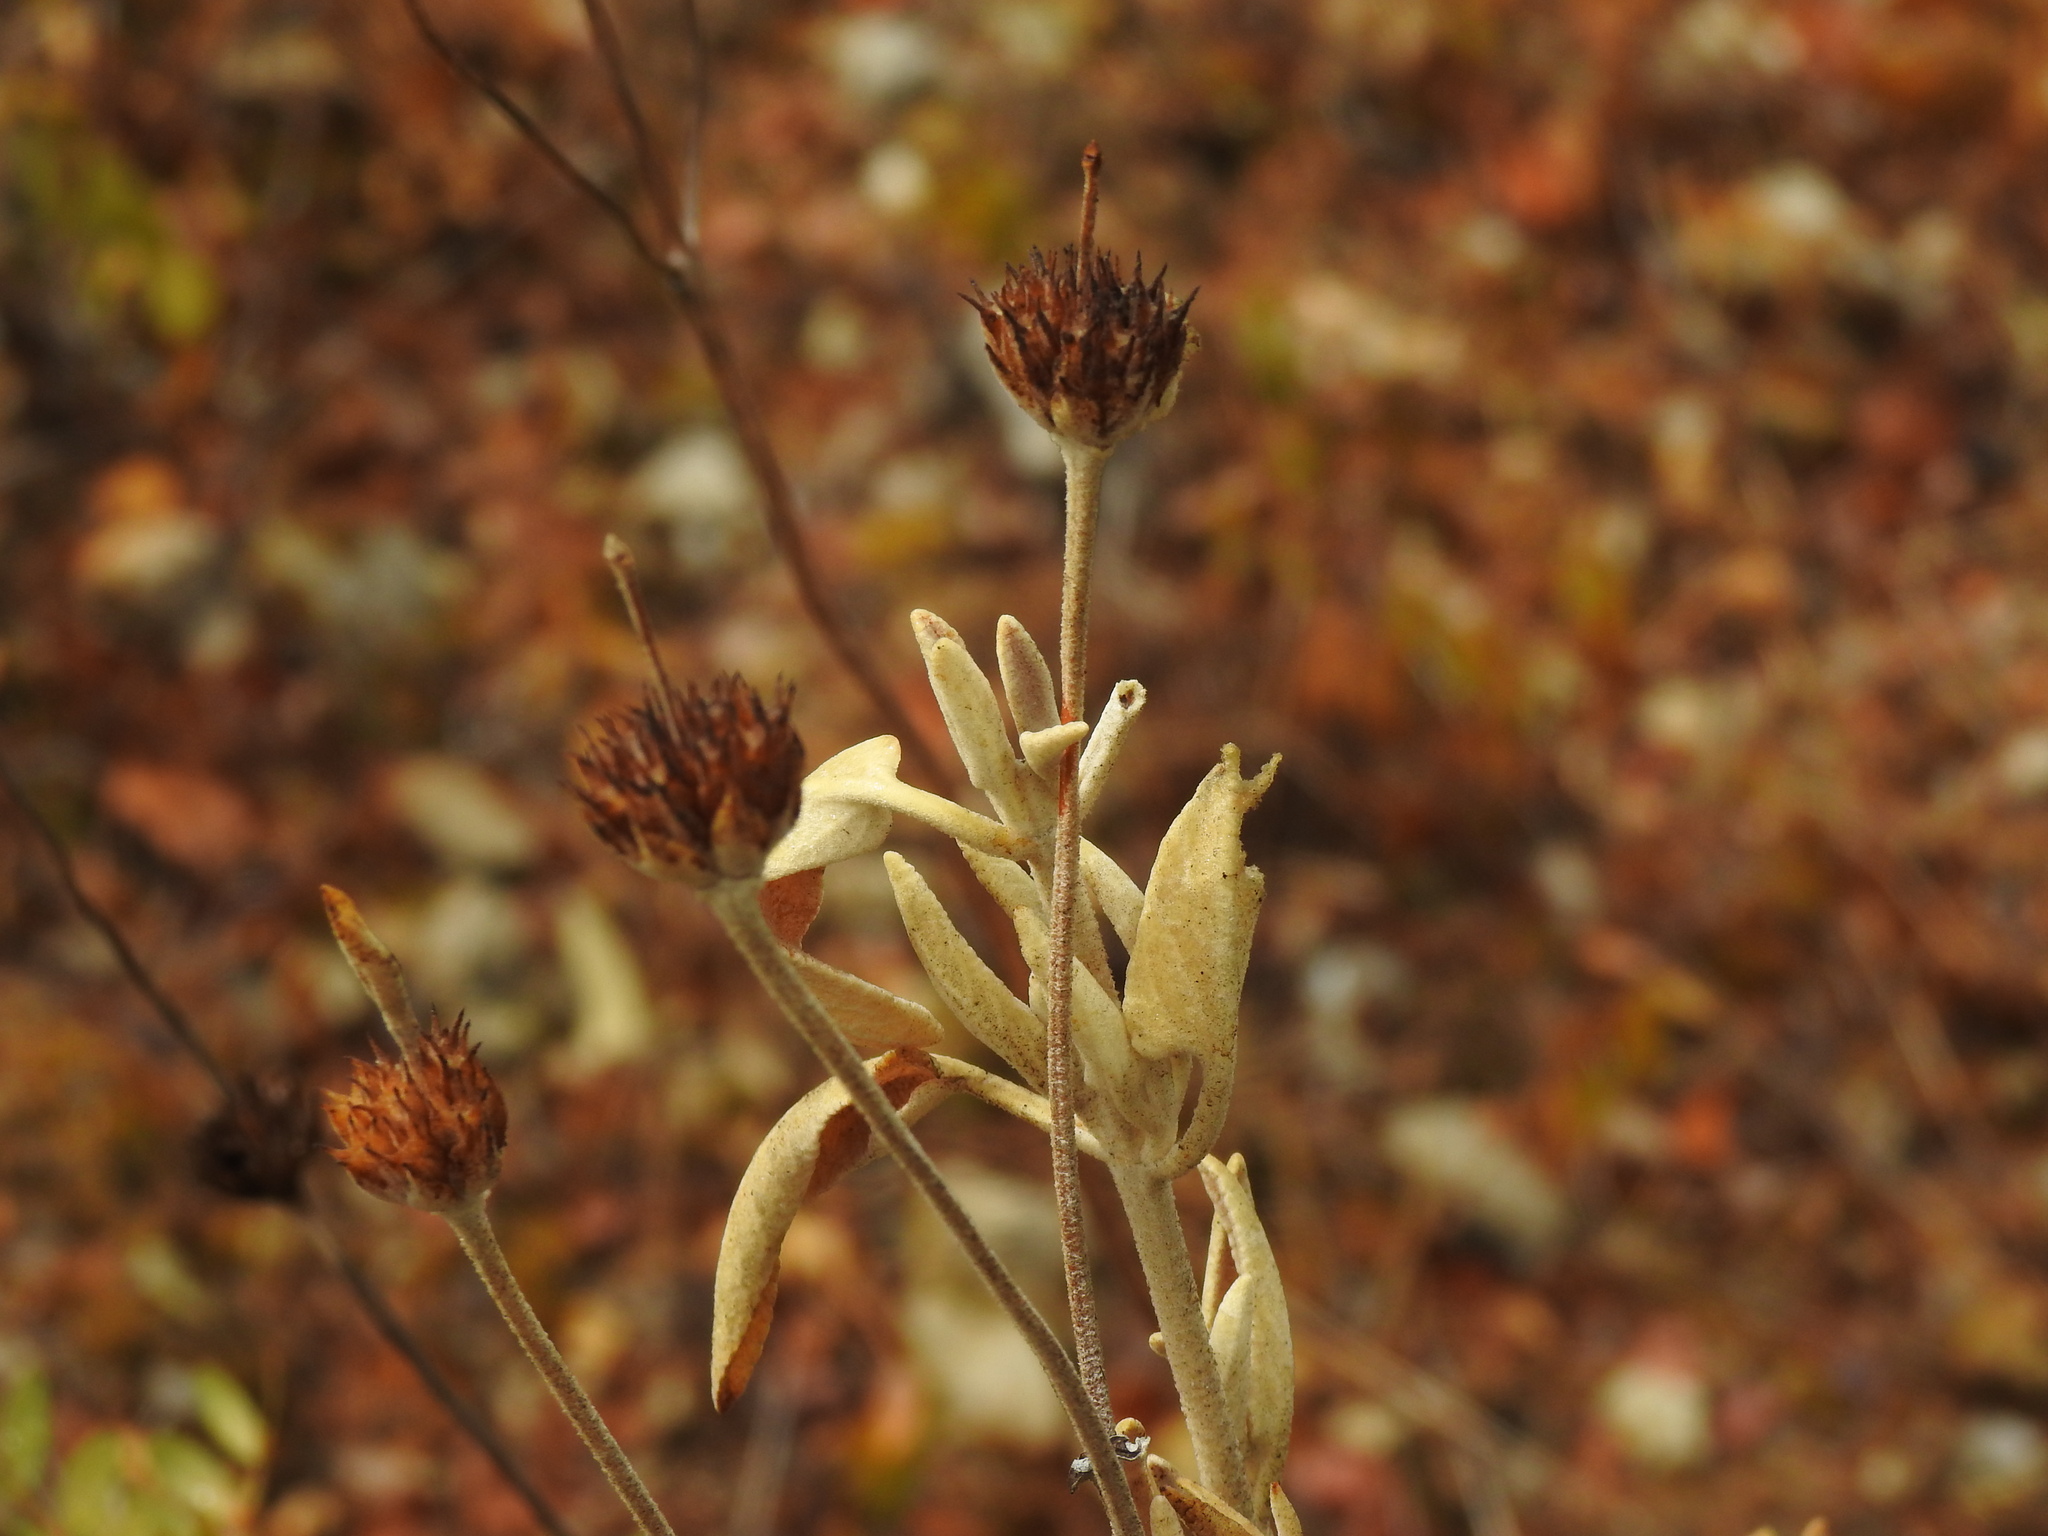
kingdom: Plantae
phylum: Tracheophyta
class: Magnoliopsida
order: Lamiales
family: Lamiaceae
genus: Phlomis
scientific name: Phlomis purpurea
